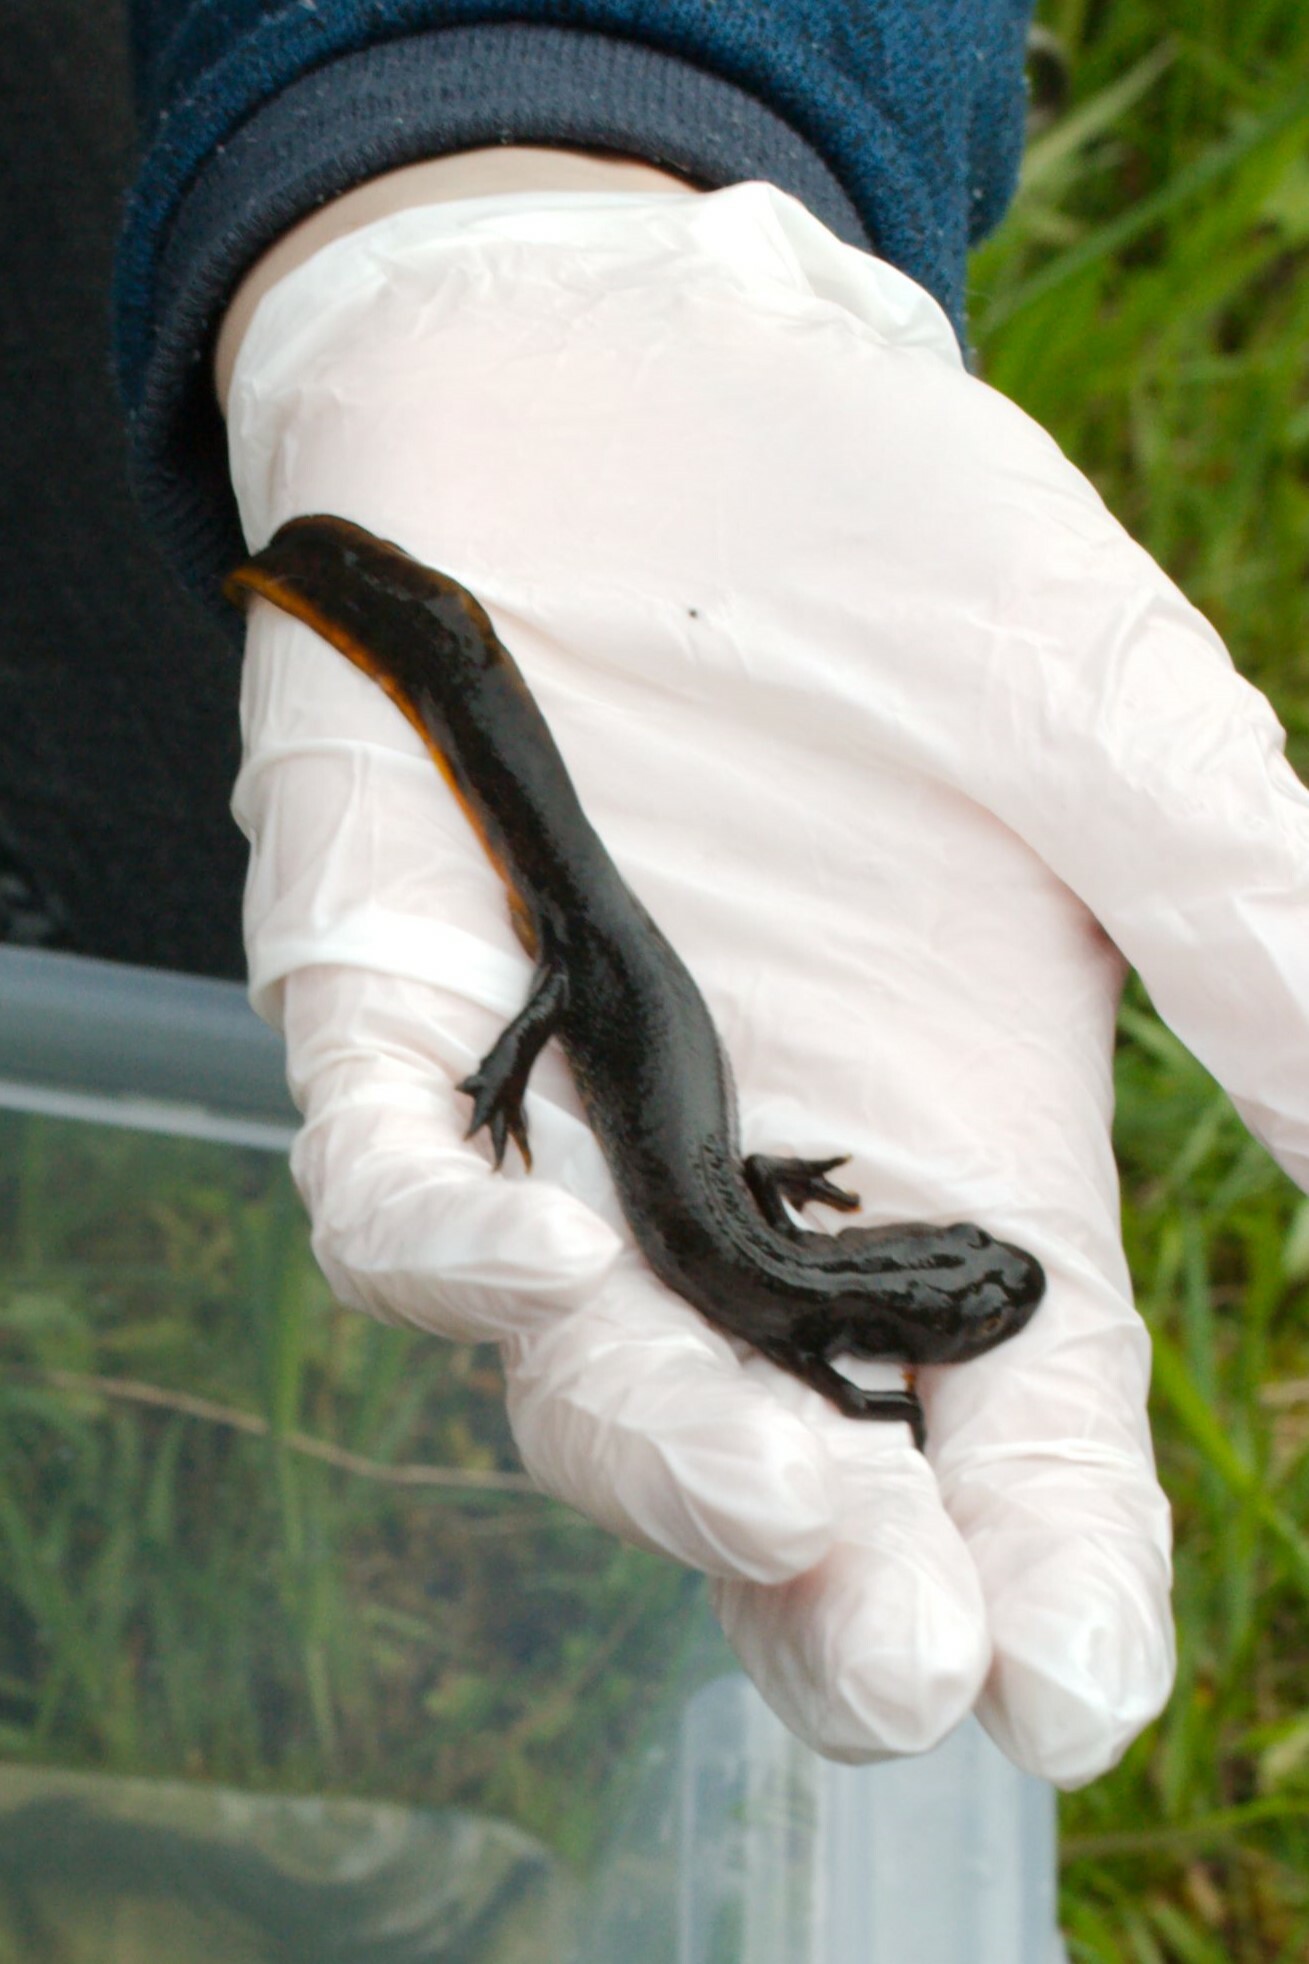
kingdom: Animalia
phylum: Chordata
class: Amphibia
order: Caudata
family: Salamandridae
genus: Triturus
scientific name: Triturus cristatus
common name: Crested newt
